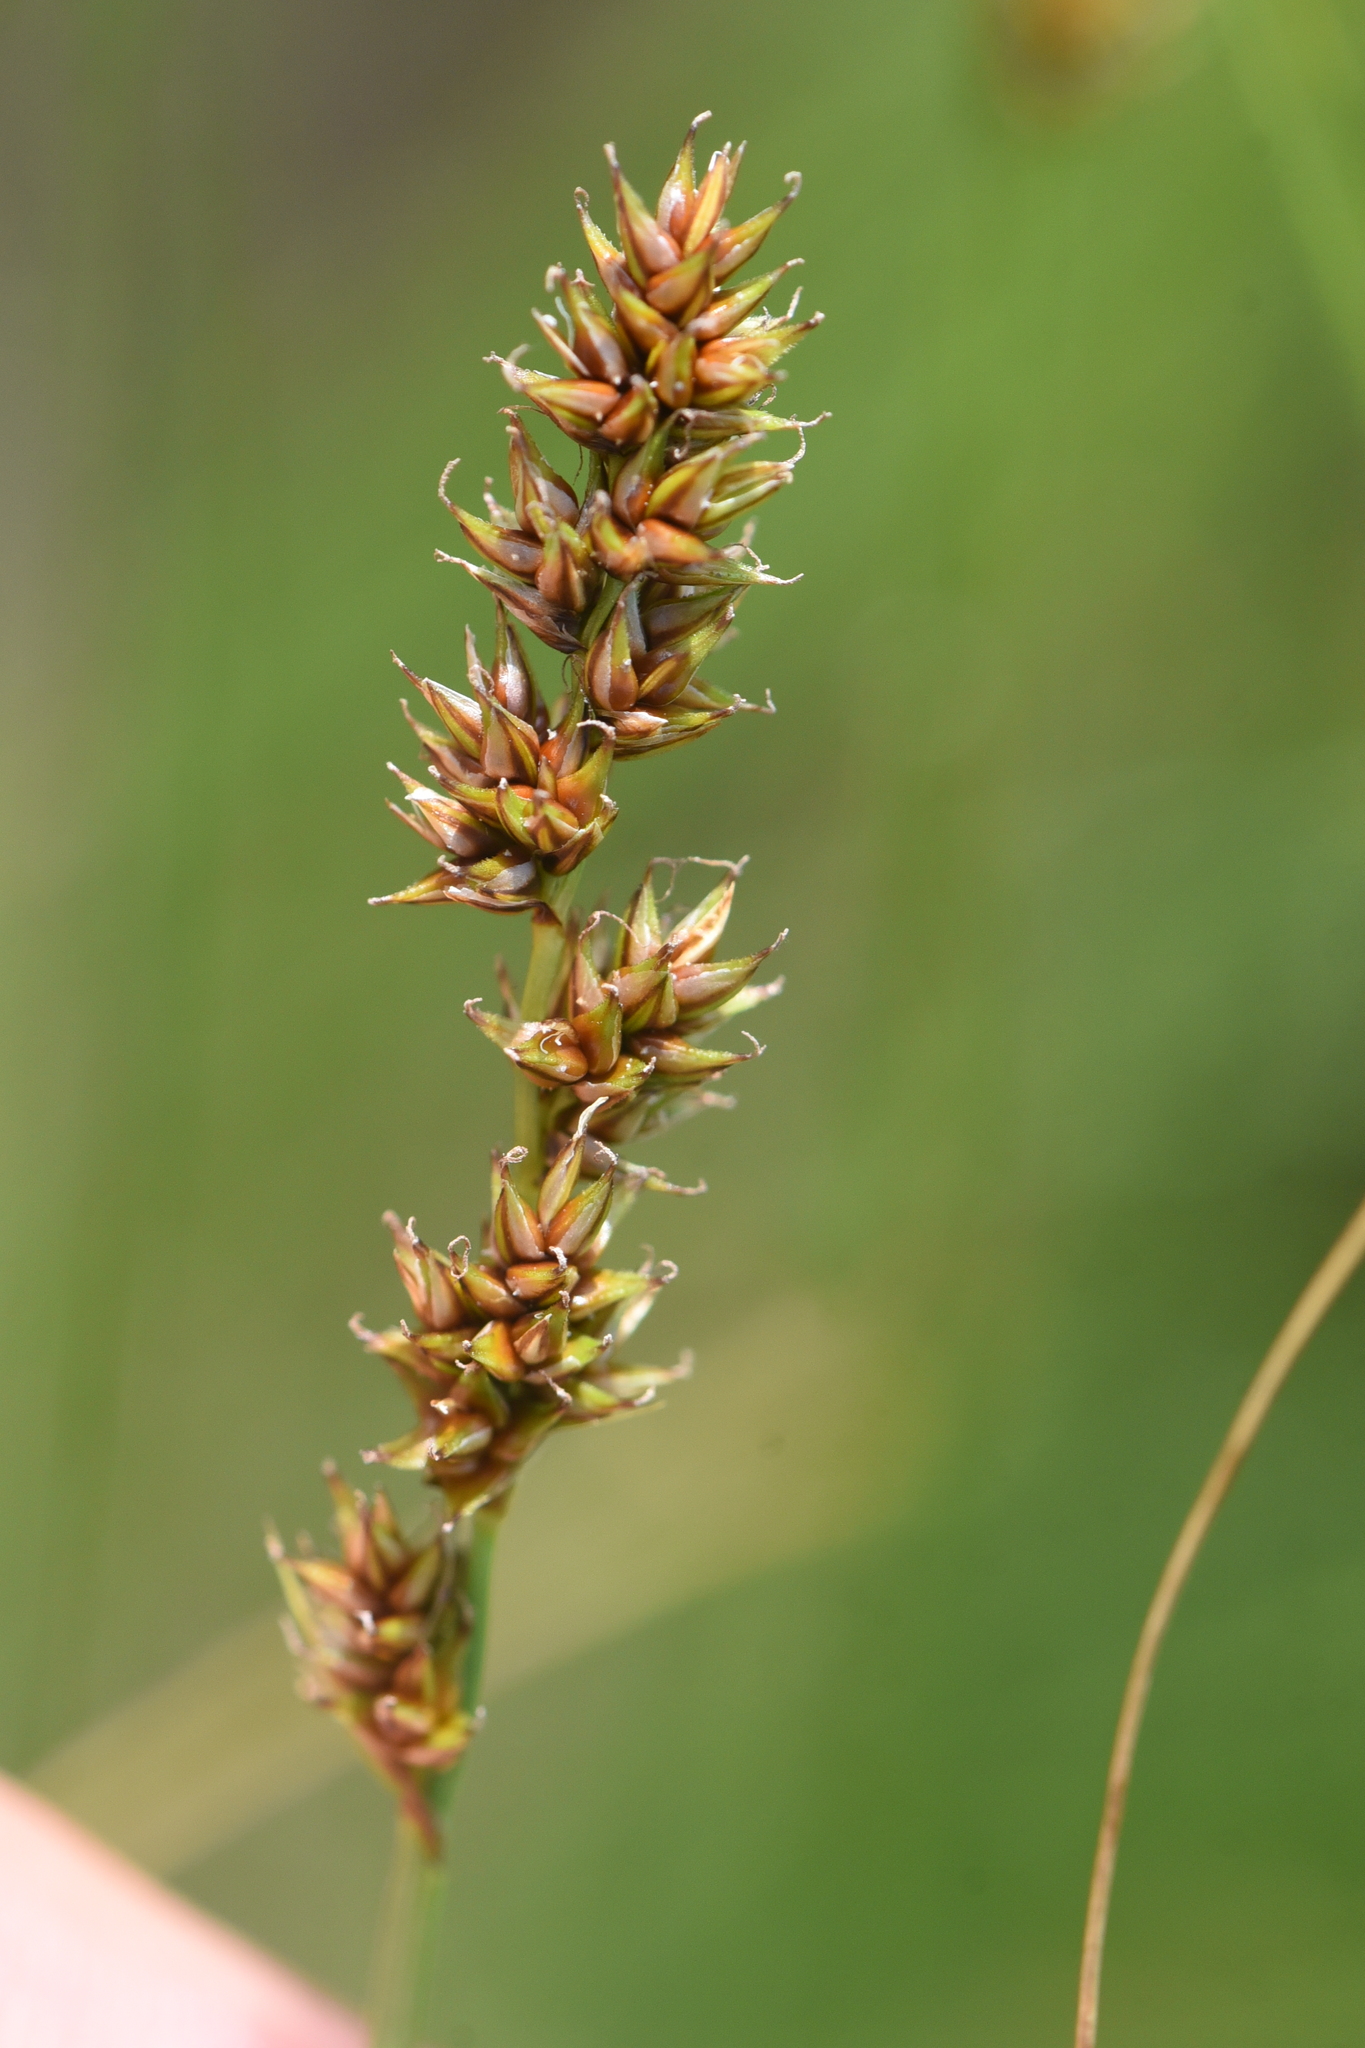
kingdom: Plantae
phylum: Tracheophyta
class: Liliopsida
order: Poales
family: Cyperaceae
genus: Carex
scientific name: Carex diandra
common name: Lesser tussock-sedge
